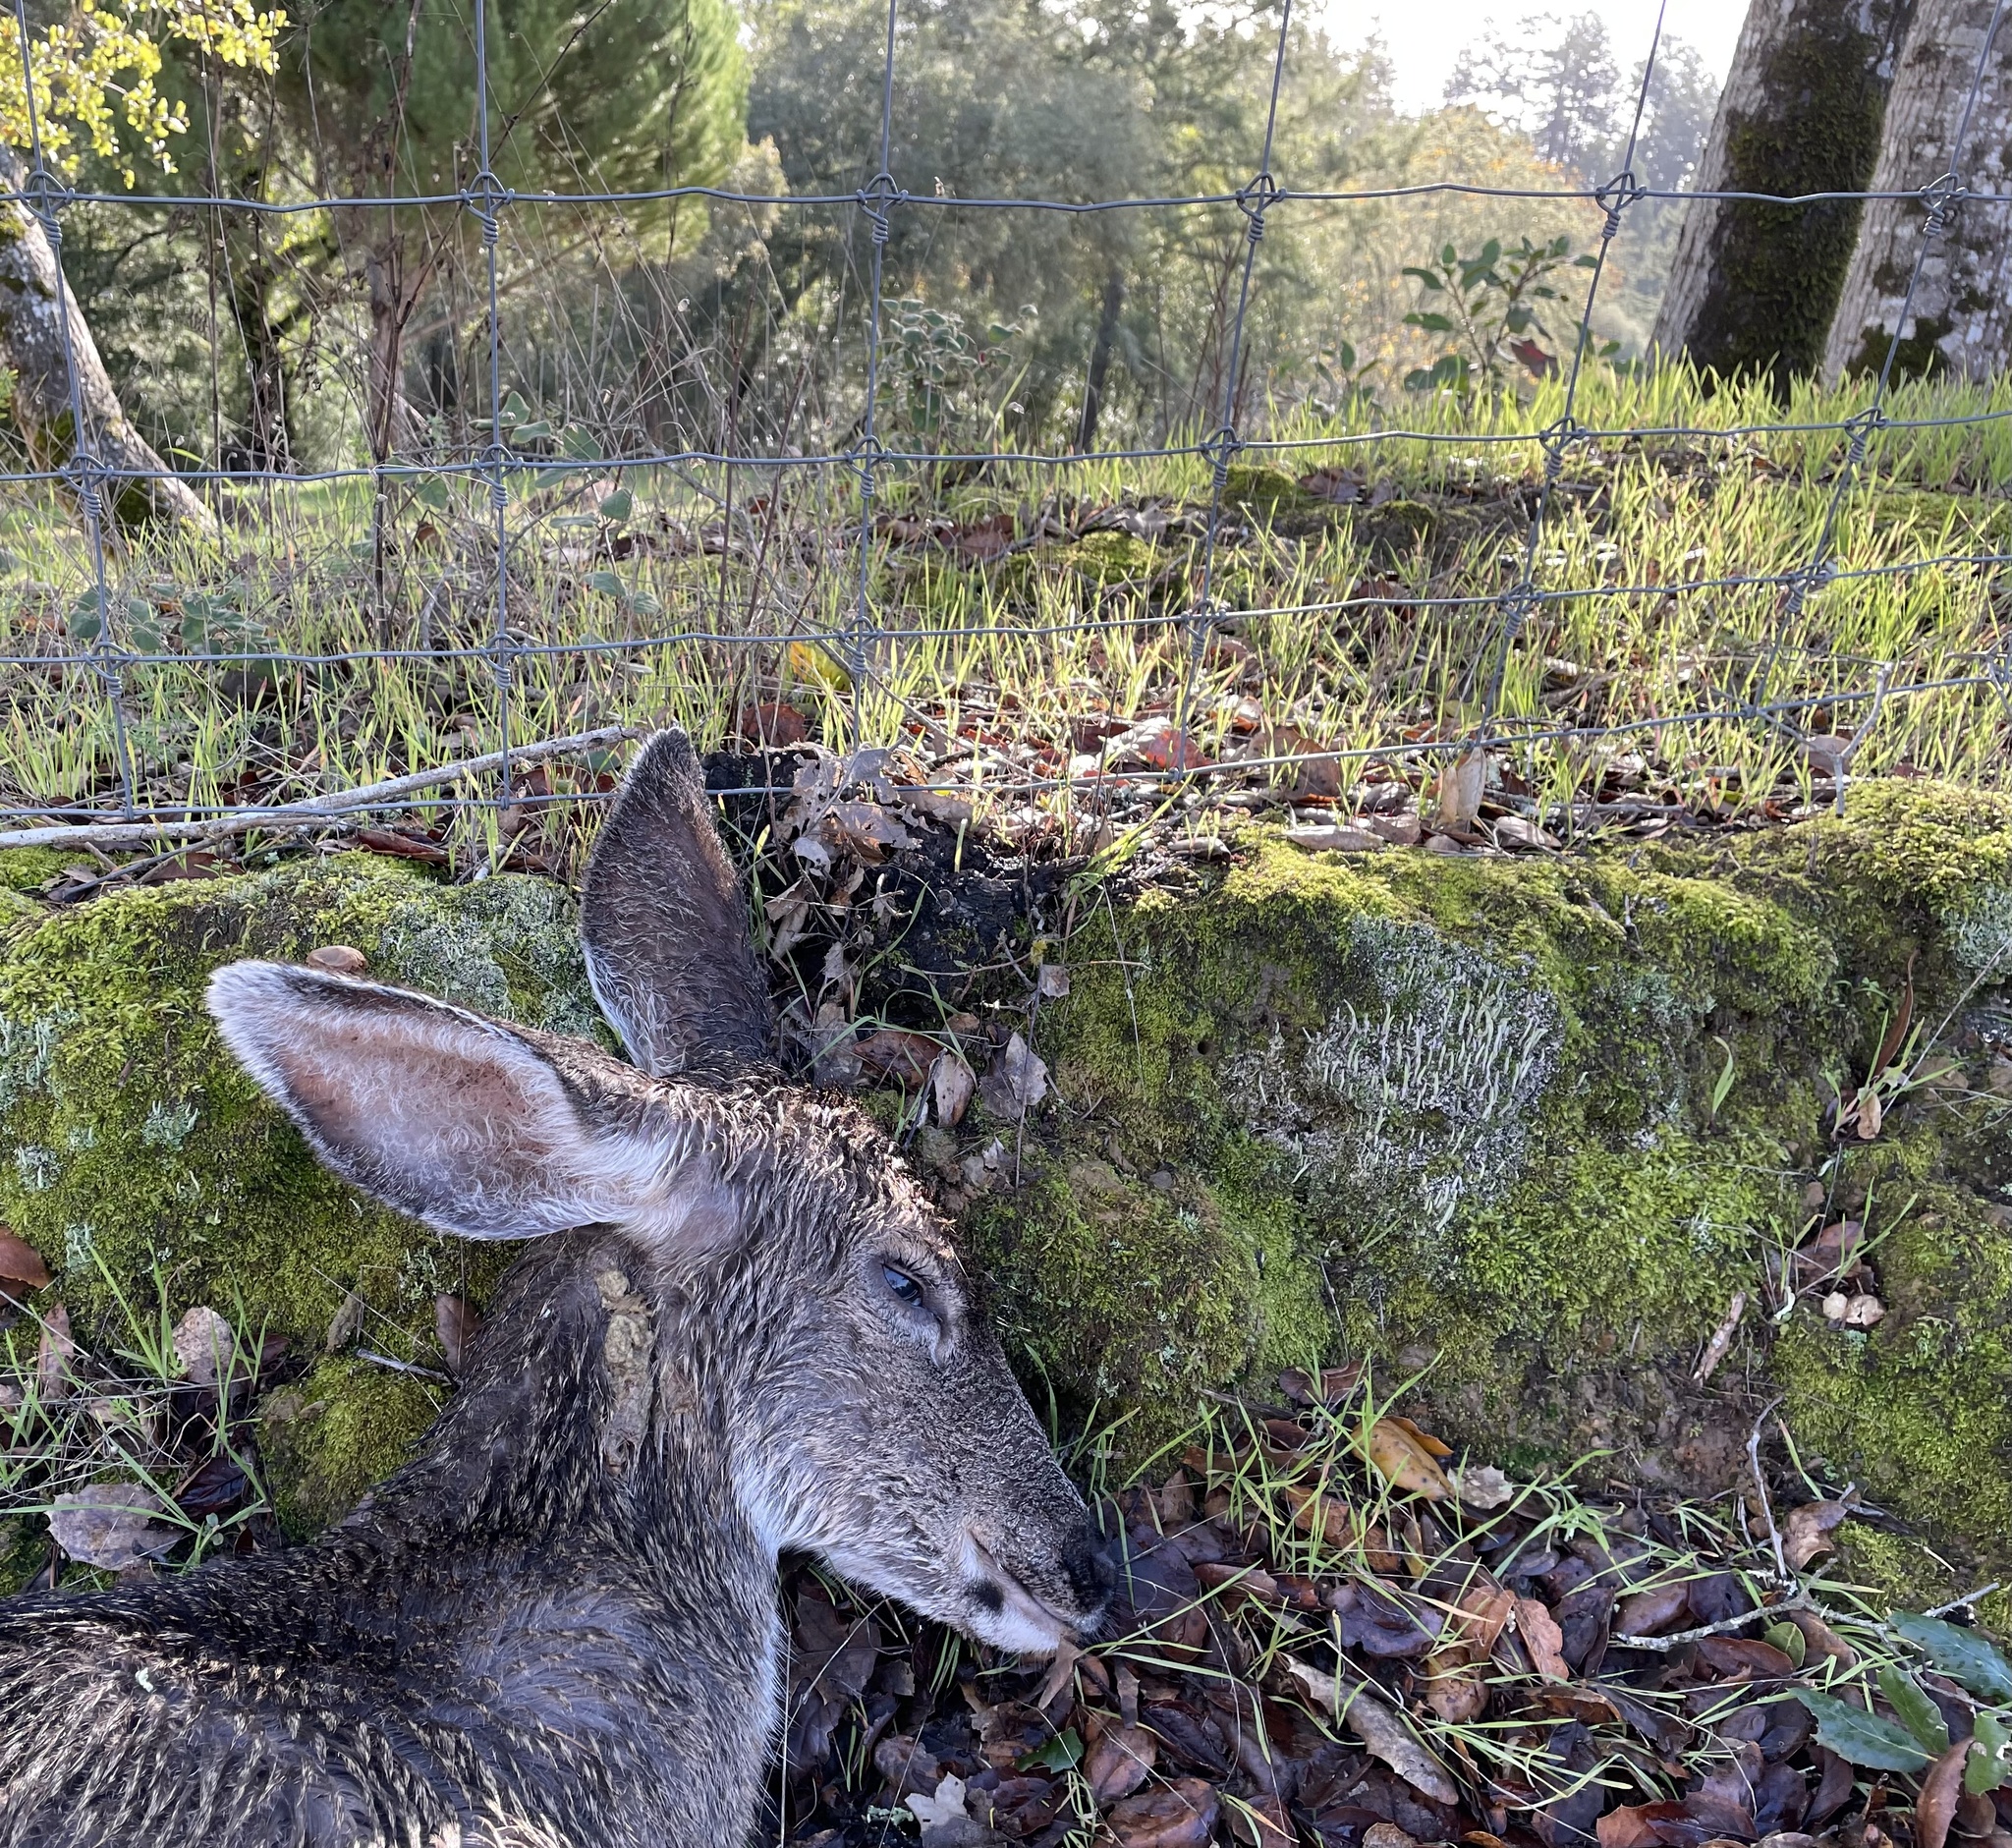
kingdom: Animalia
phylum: Chordata
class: Mammalia
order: Artiodactyla
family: Cervidae
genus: Odocoileus
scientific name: Odocoileus hemionus
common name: Mule deer
